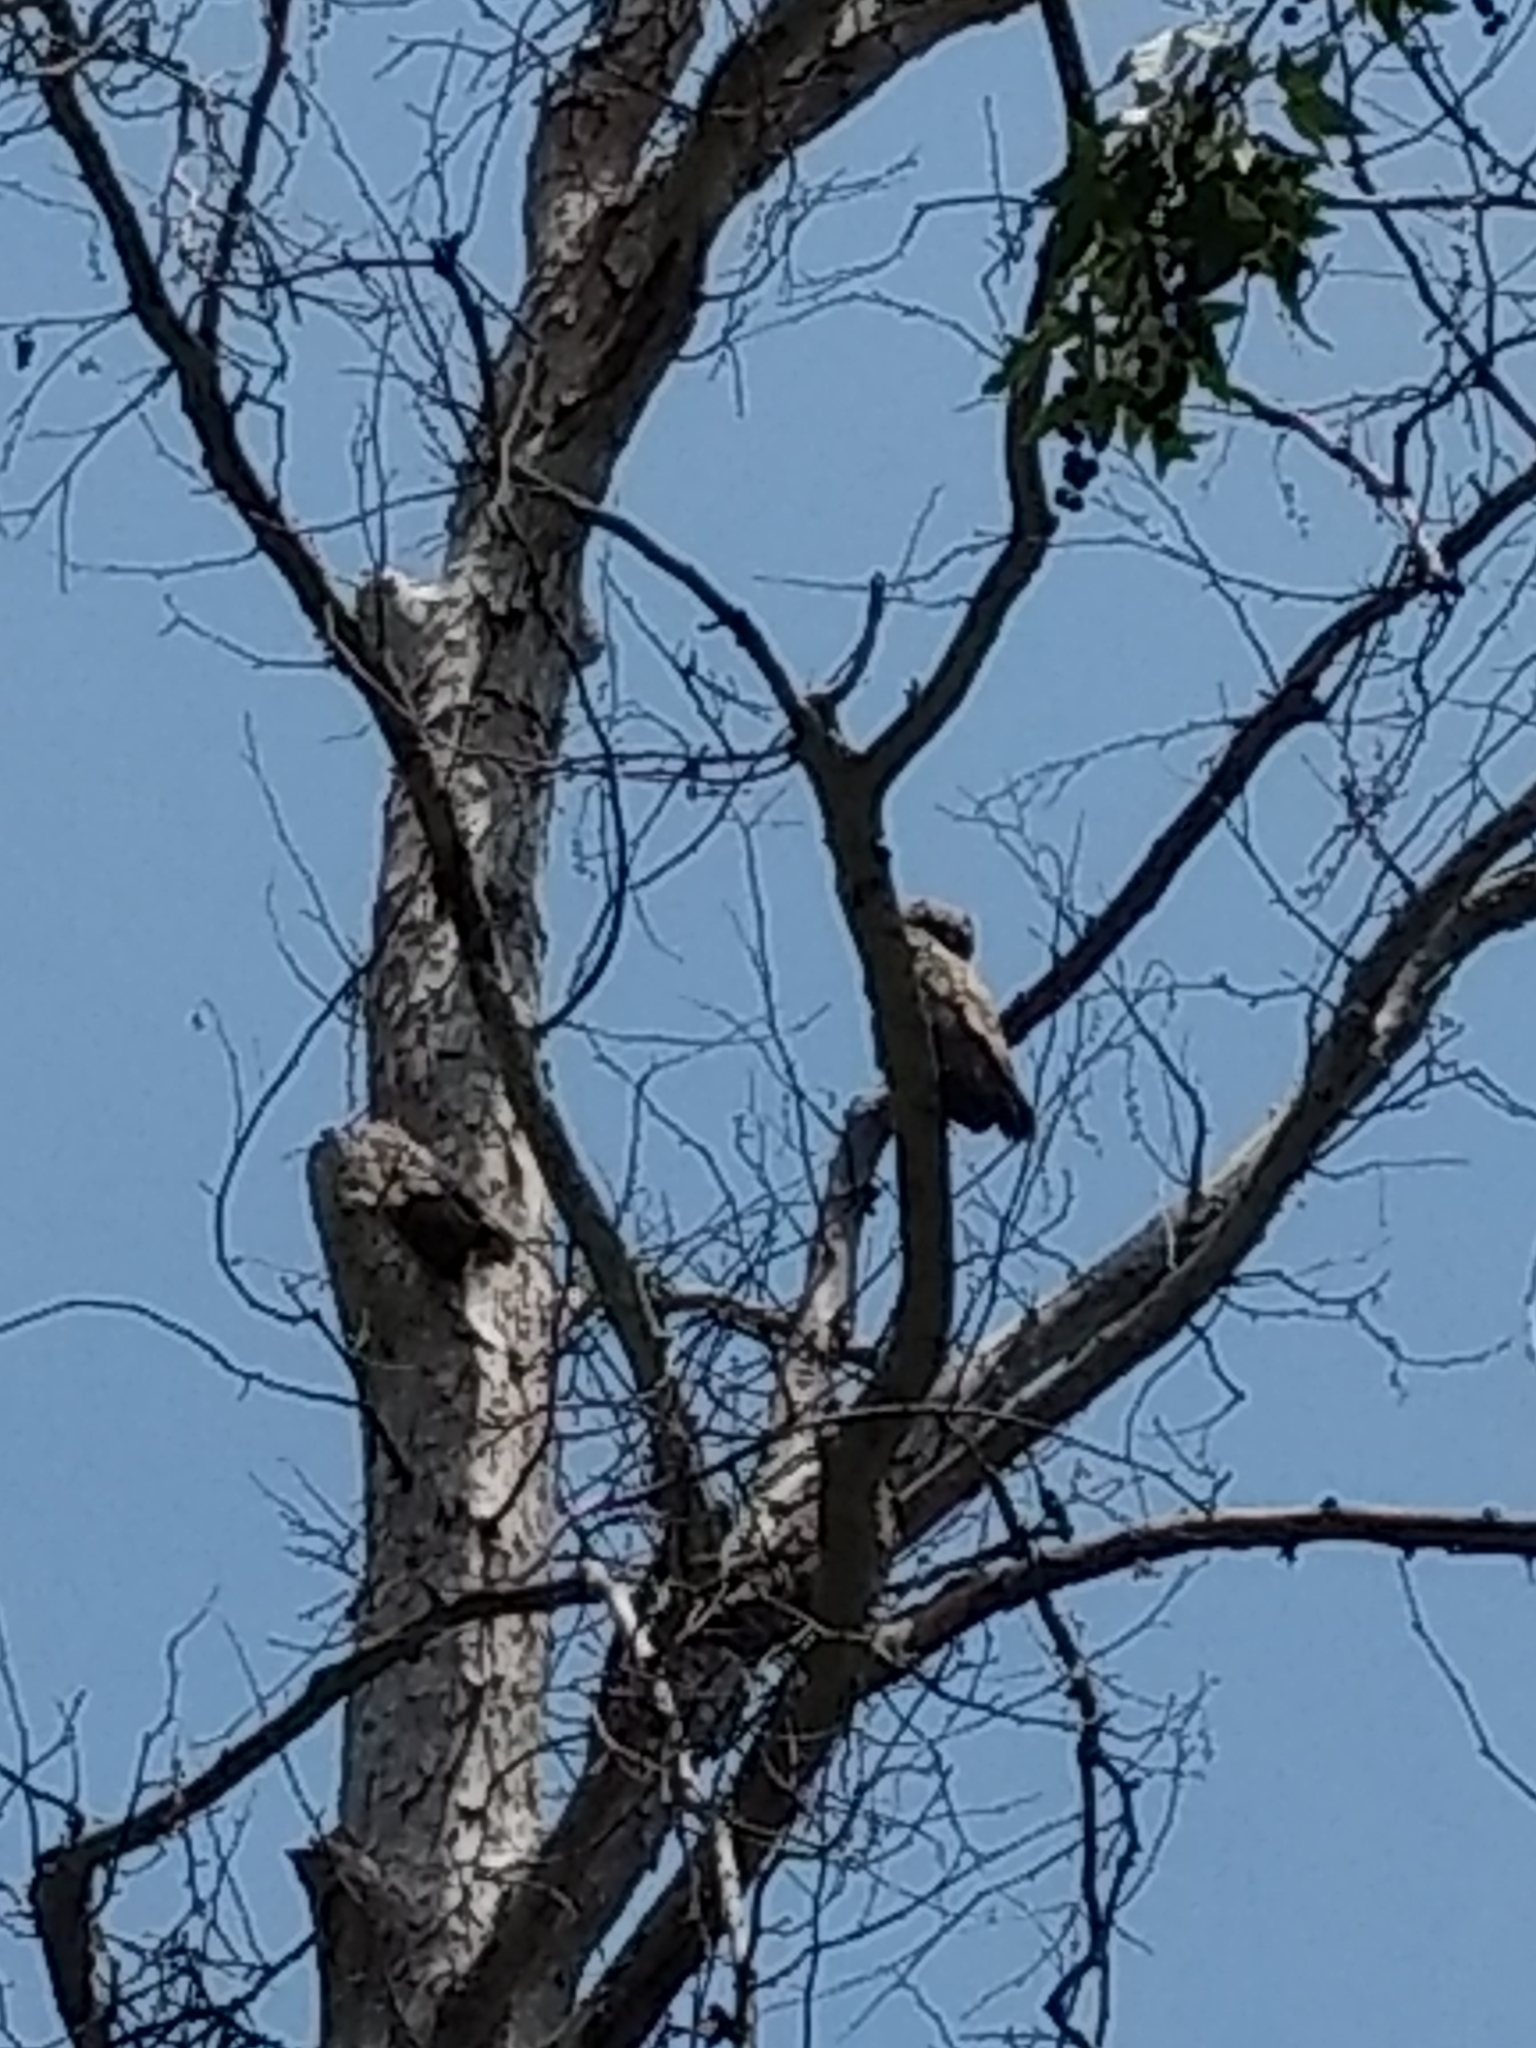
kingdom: Animalia
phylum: Chordata
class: Aves
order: Strigiformes
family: Strigidae
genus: Bubo
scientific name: Bubo virginianus
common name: Great horned owl
